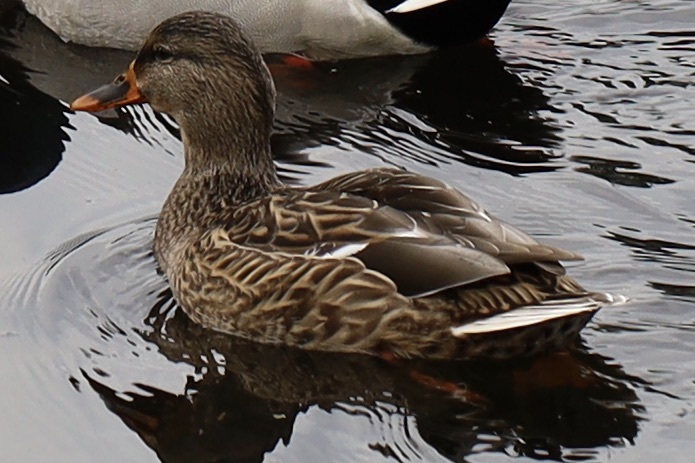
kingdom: Animalia
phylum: Chordata
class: Aves
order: Anseriformes
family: Anatidae
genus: Anas
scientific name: Anas platyrhynchos
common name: Mallard
